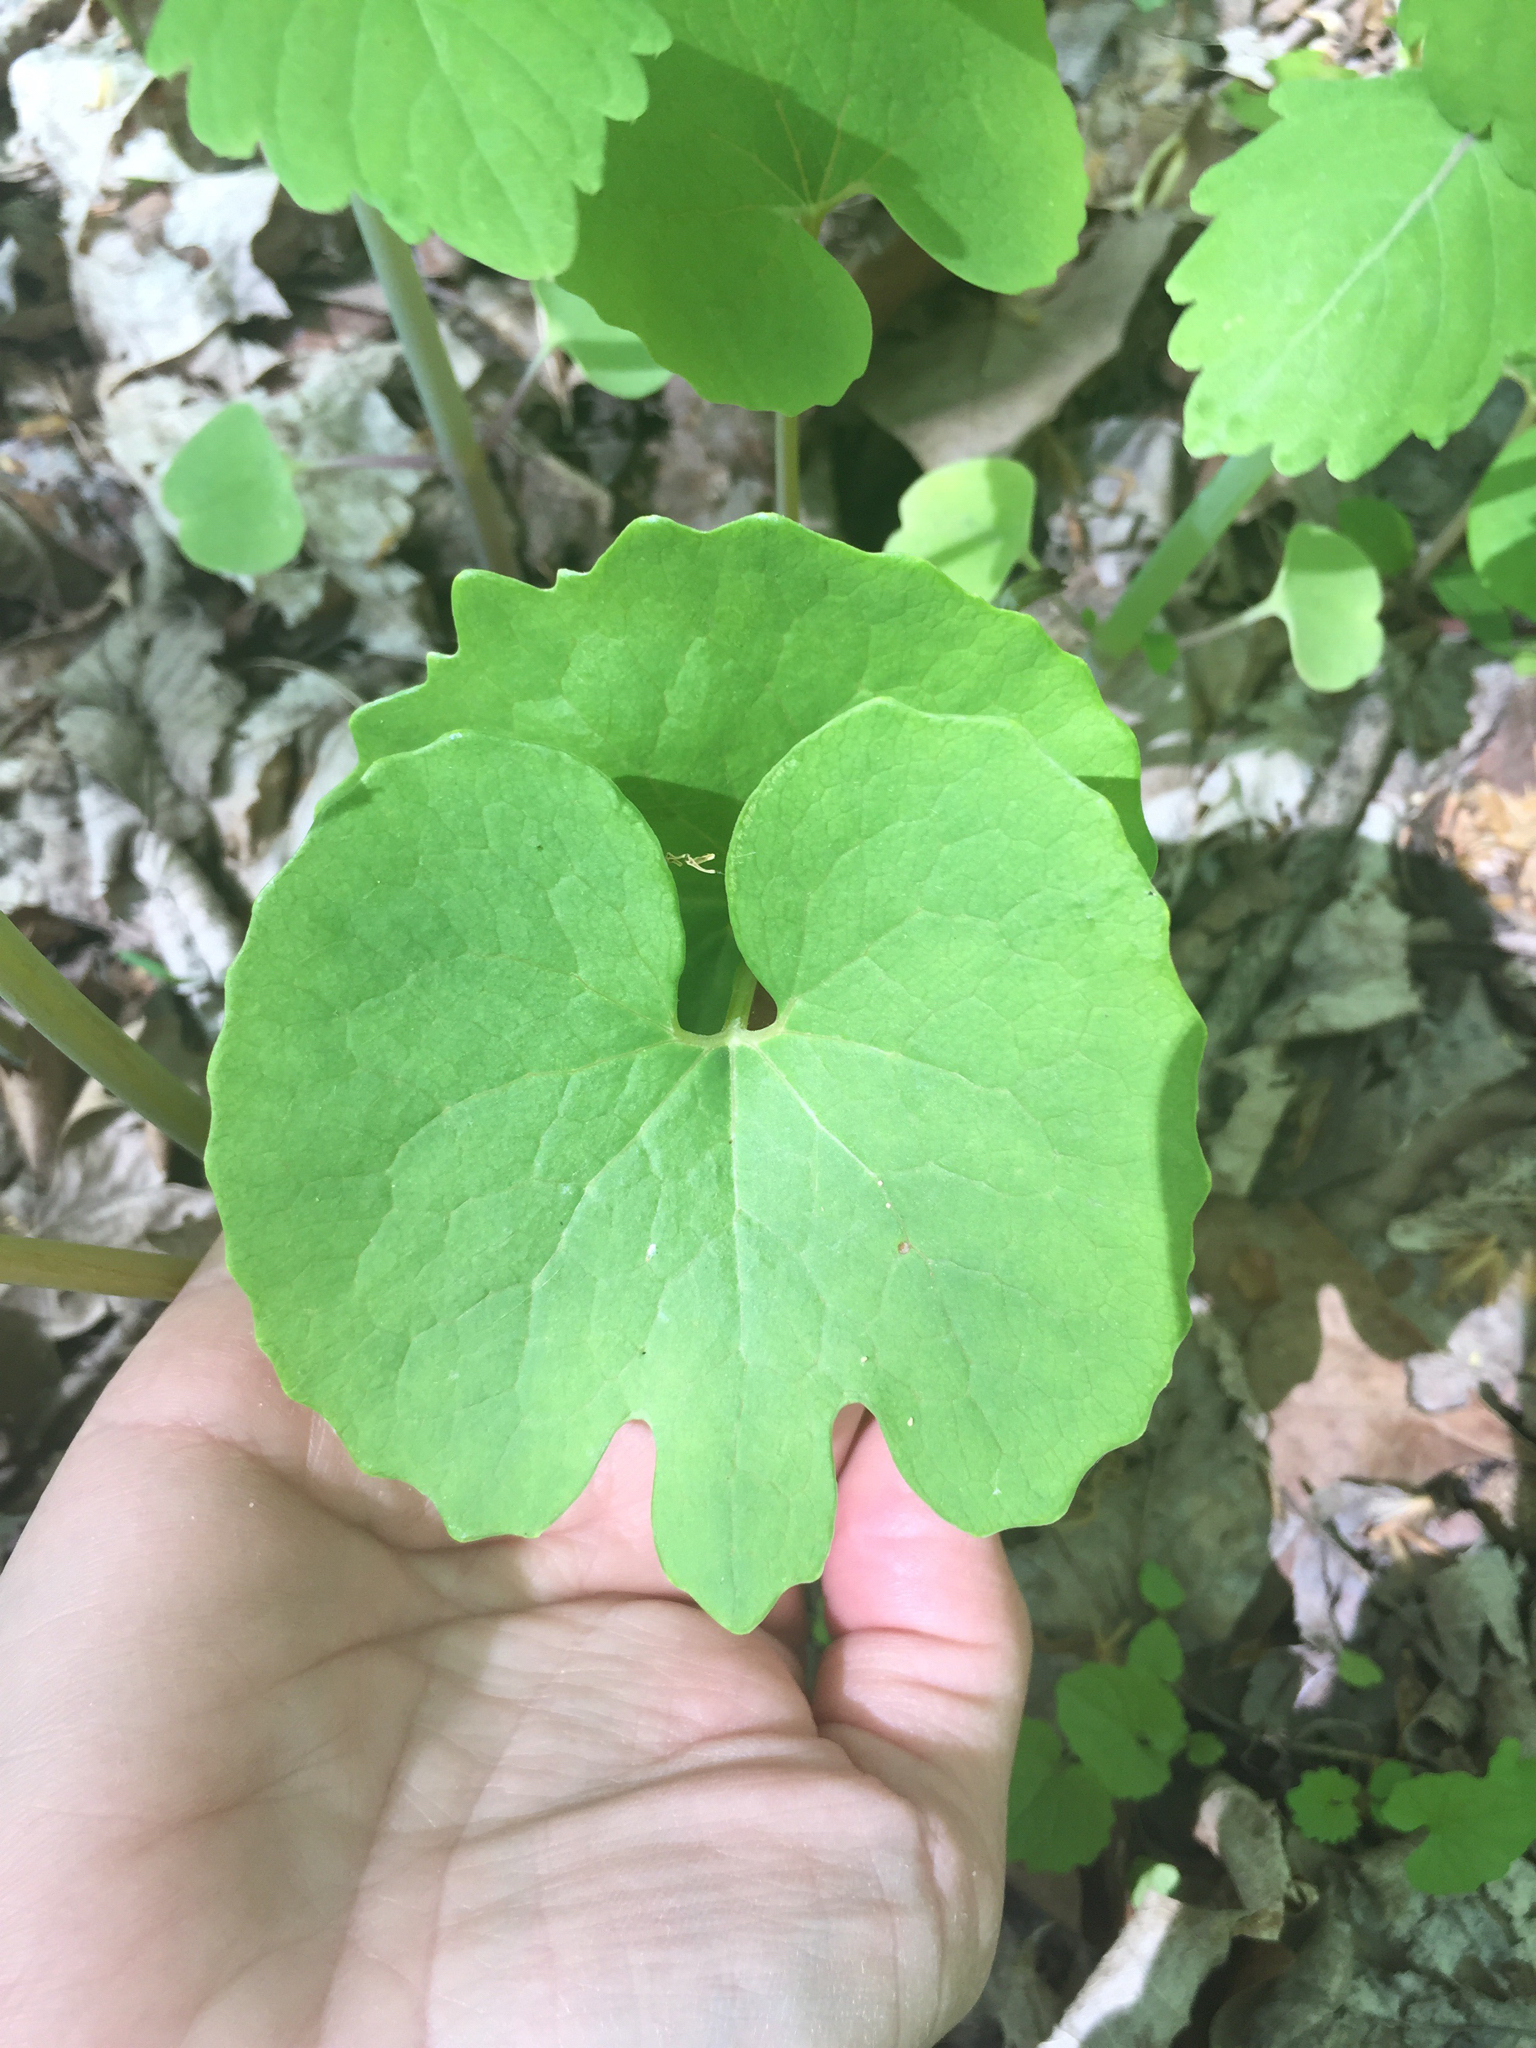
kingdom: Plantae
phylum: Tracheophyta
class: Magnoliopsida
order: Ranunculales
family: Papaveraceae
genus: Sanguinaria
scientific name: Sanguinaria canadensis
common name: Bloodroot
